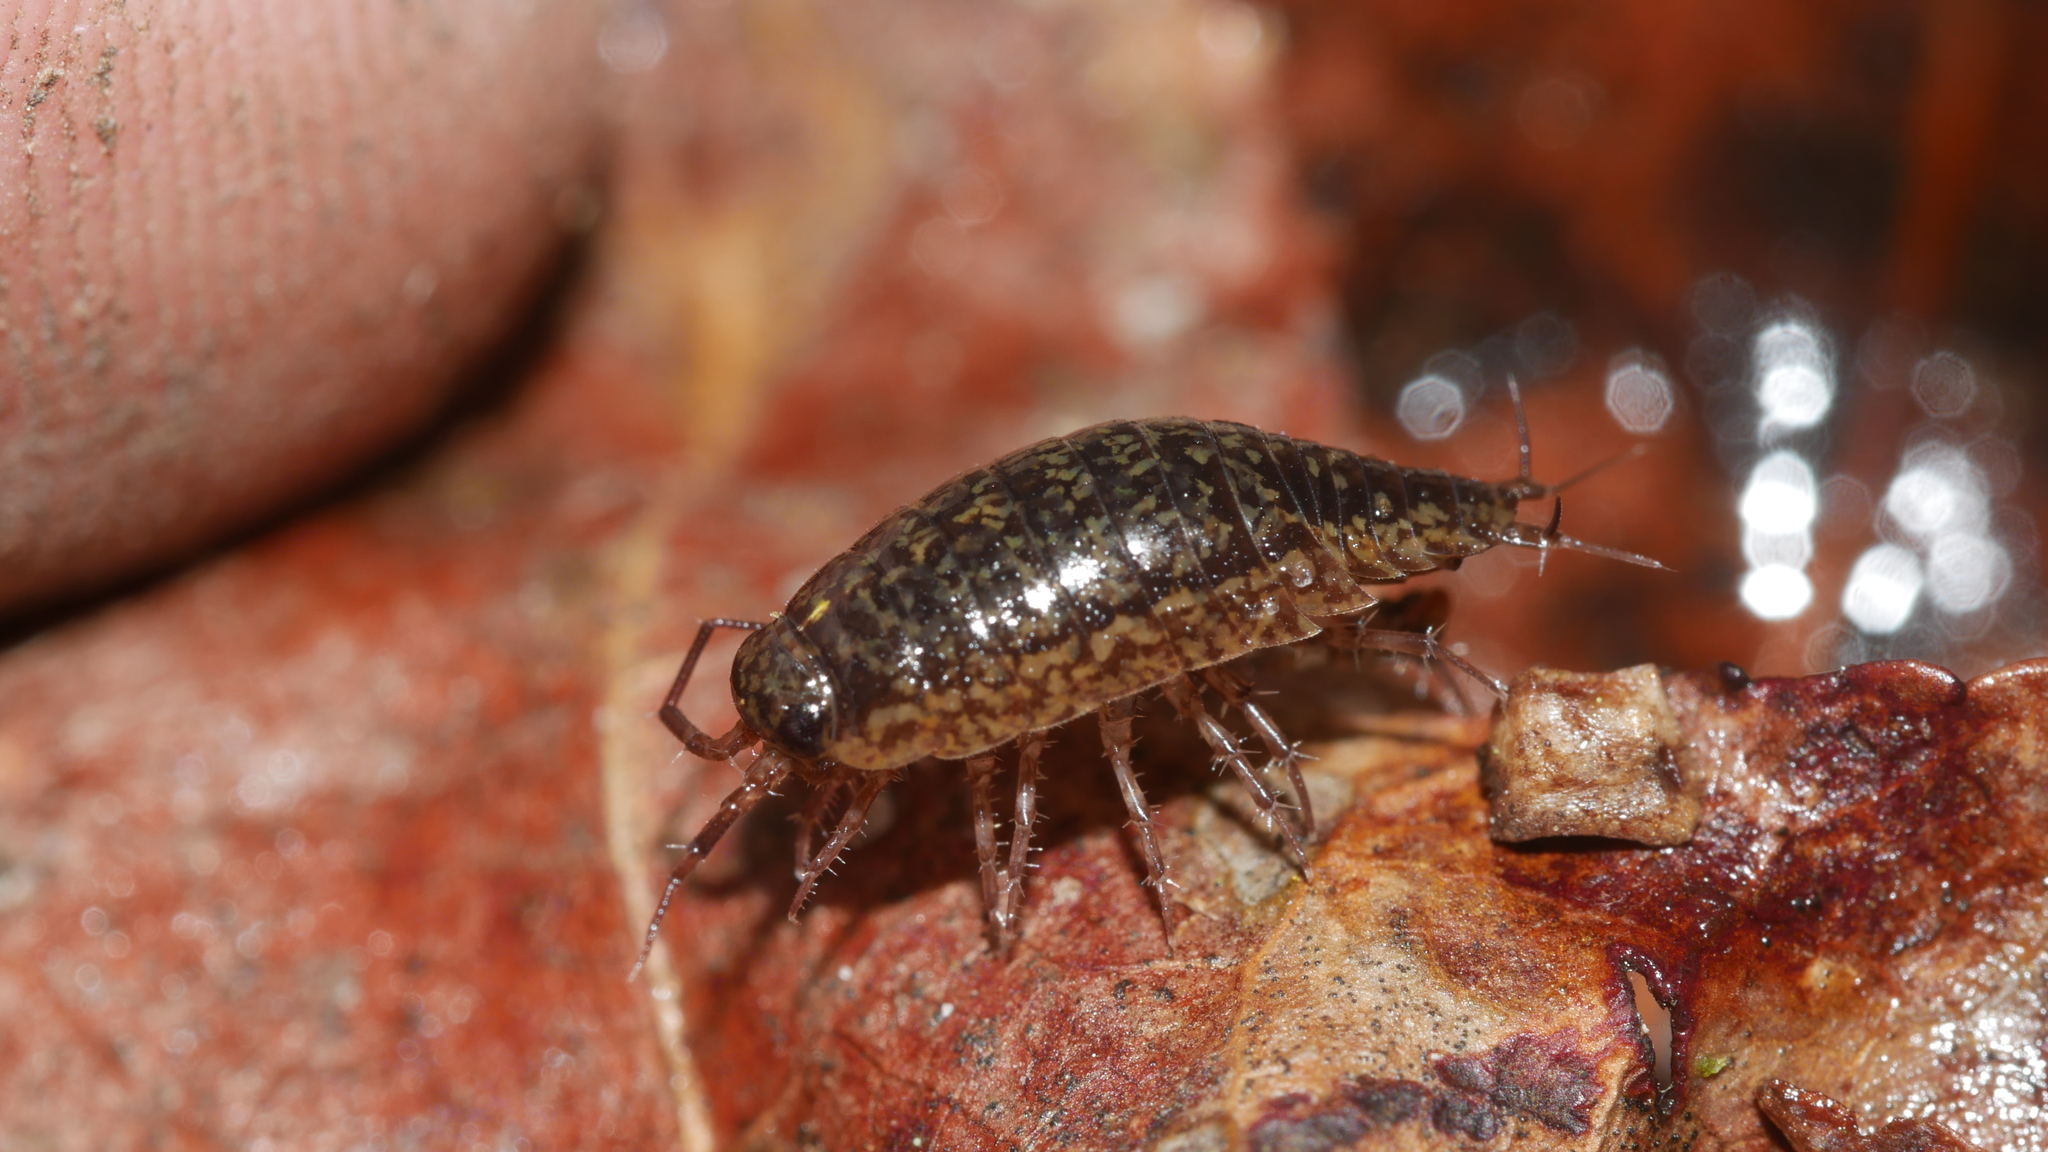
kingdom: Animalia
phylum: Arthropoda
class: Malacostraca
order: Isopoda
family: Ligiidae
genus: Ligidium
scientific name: Ligidium elrodii
